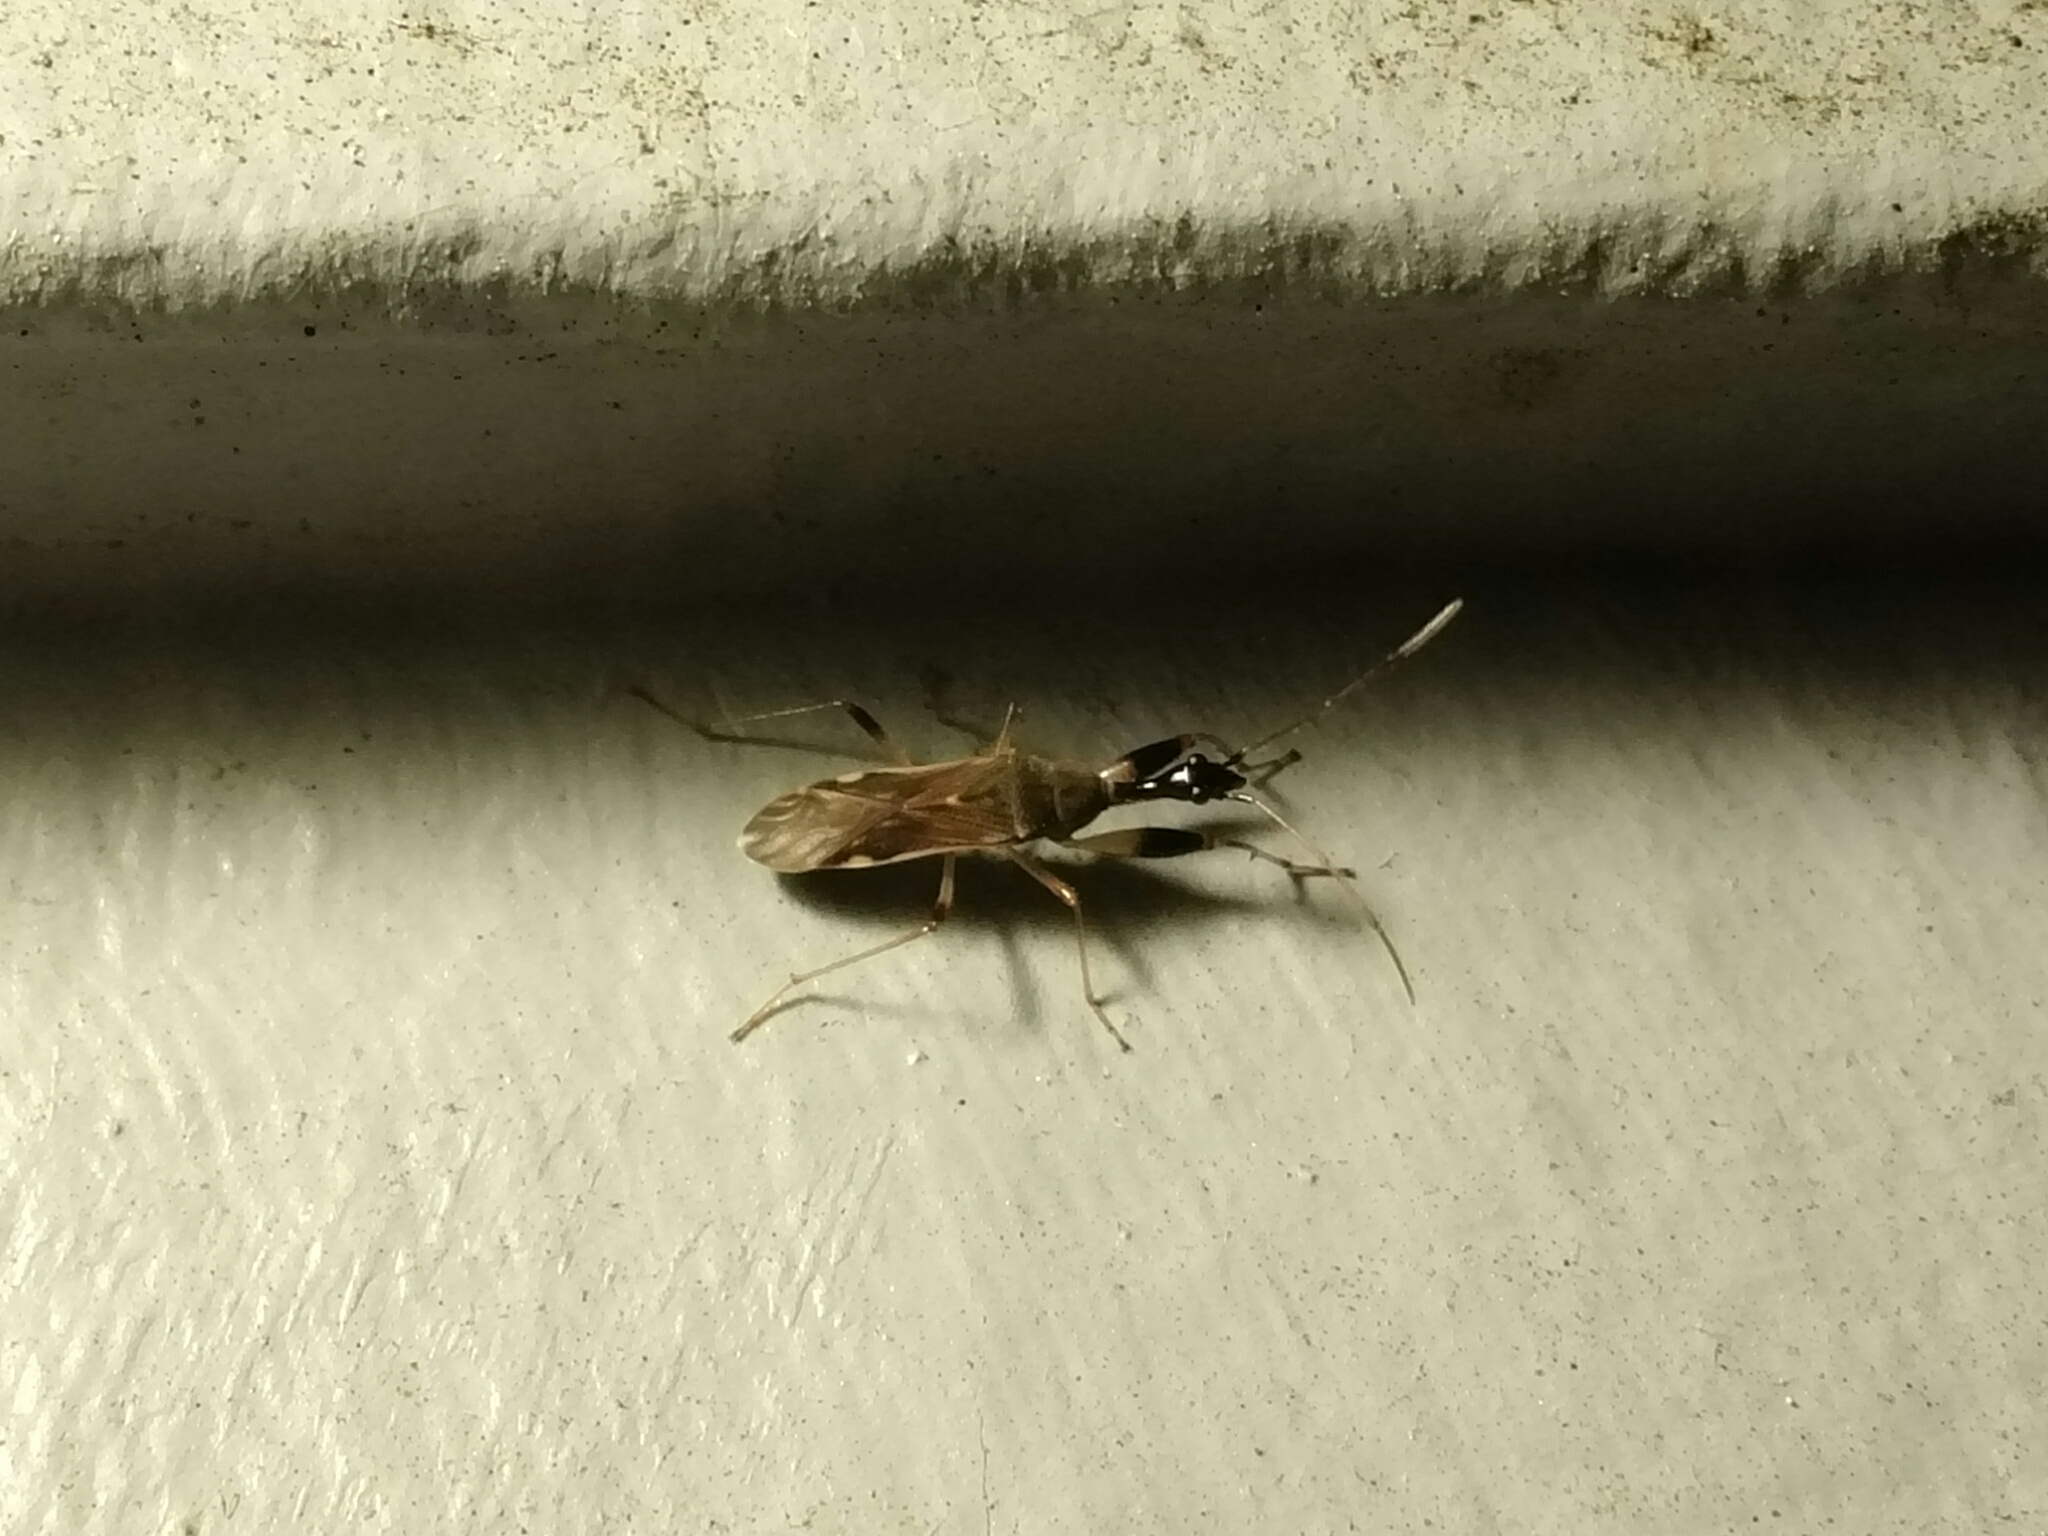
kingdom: Animalia
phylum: Arthropoda
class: Insecta
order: Hemiptera
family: Rhyparochromidae
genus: Myodocha
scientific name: Myodocha serripes
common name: Long-necked seed bug
